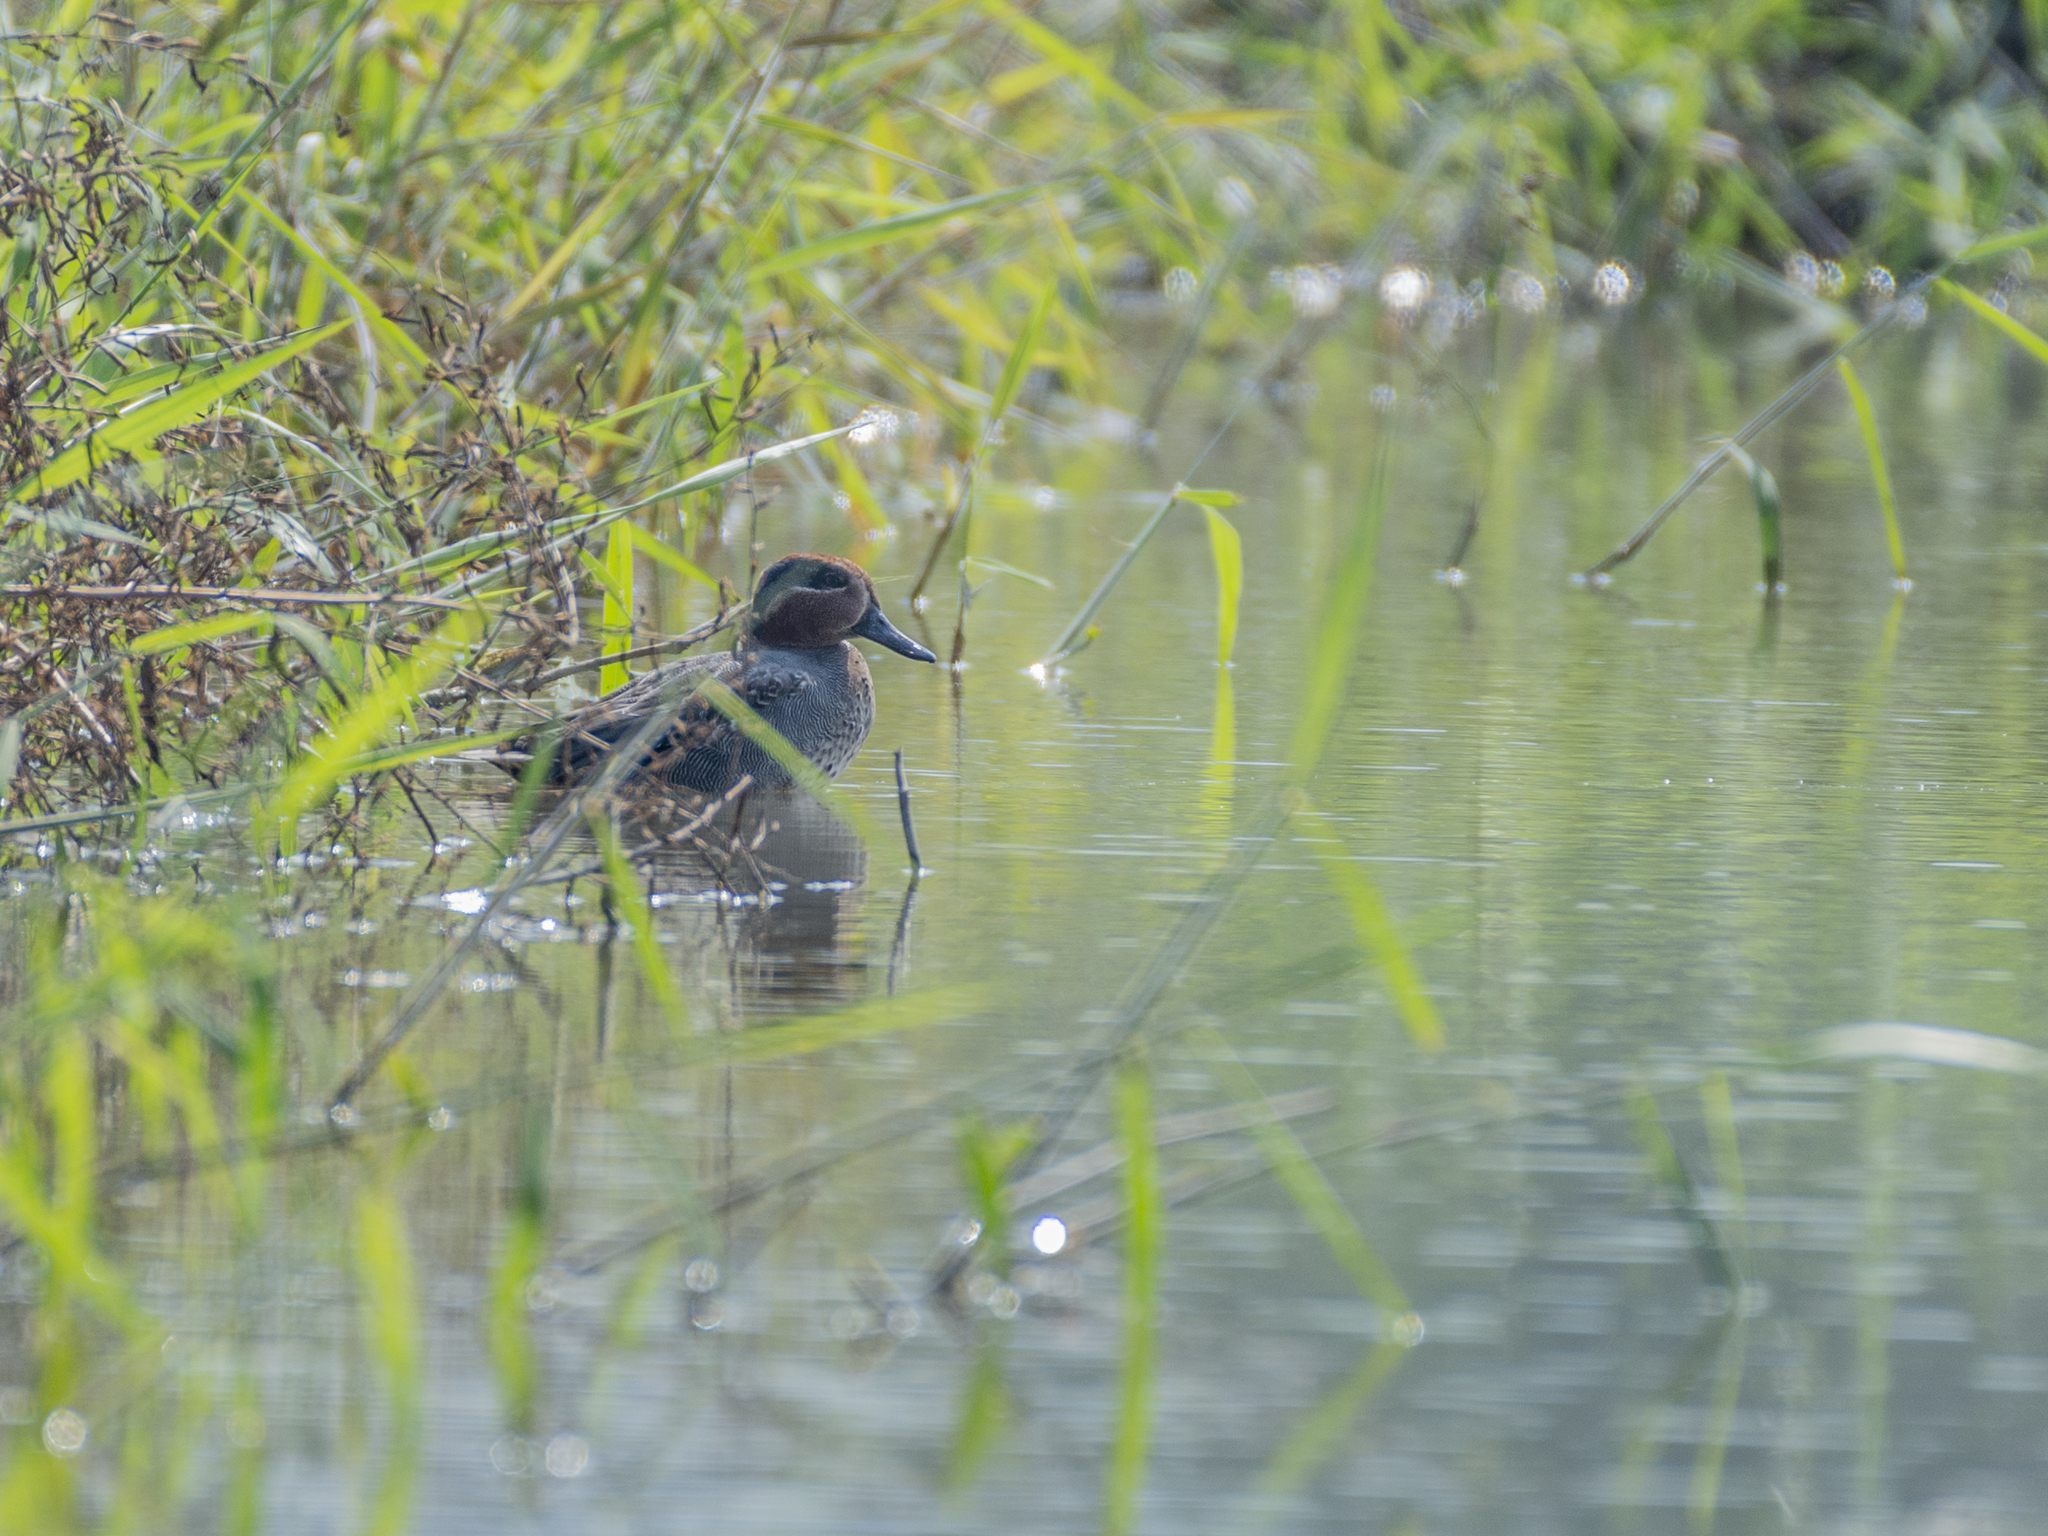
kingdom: Animalia
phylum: Chordata
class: Aves
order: Anseriformes
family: Anatidae
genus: Anas
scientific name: Anas crecca
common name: Eurasian teal
